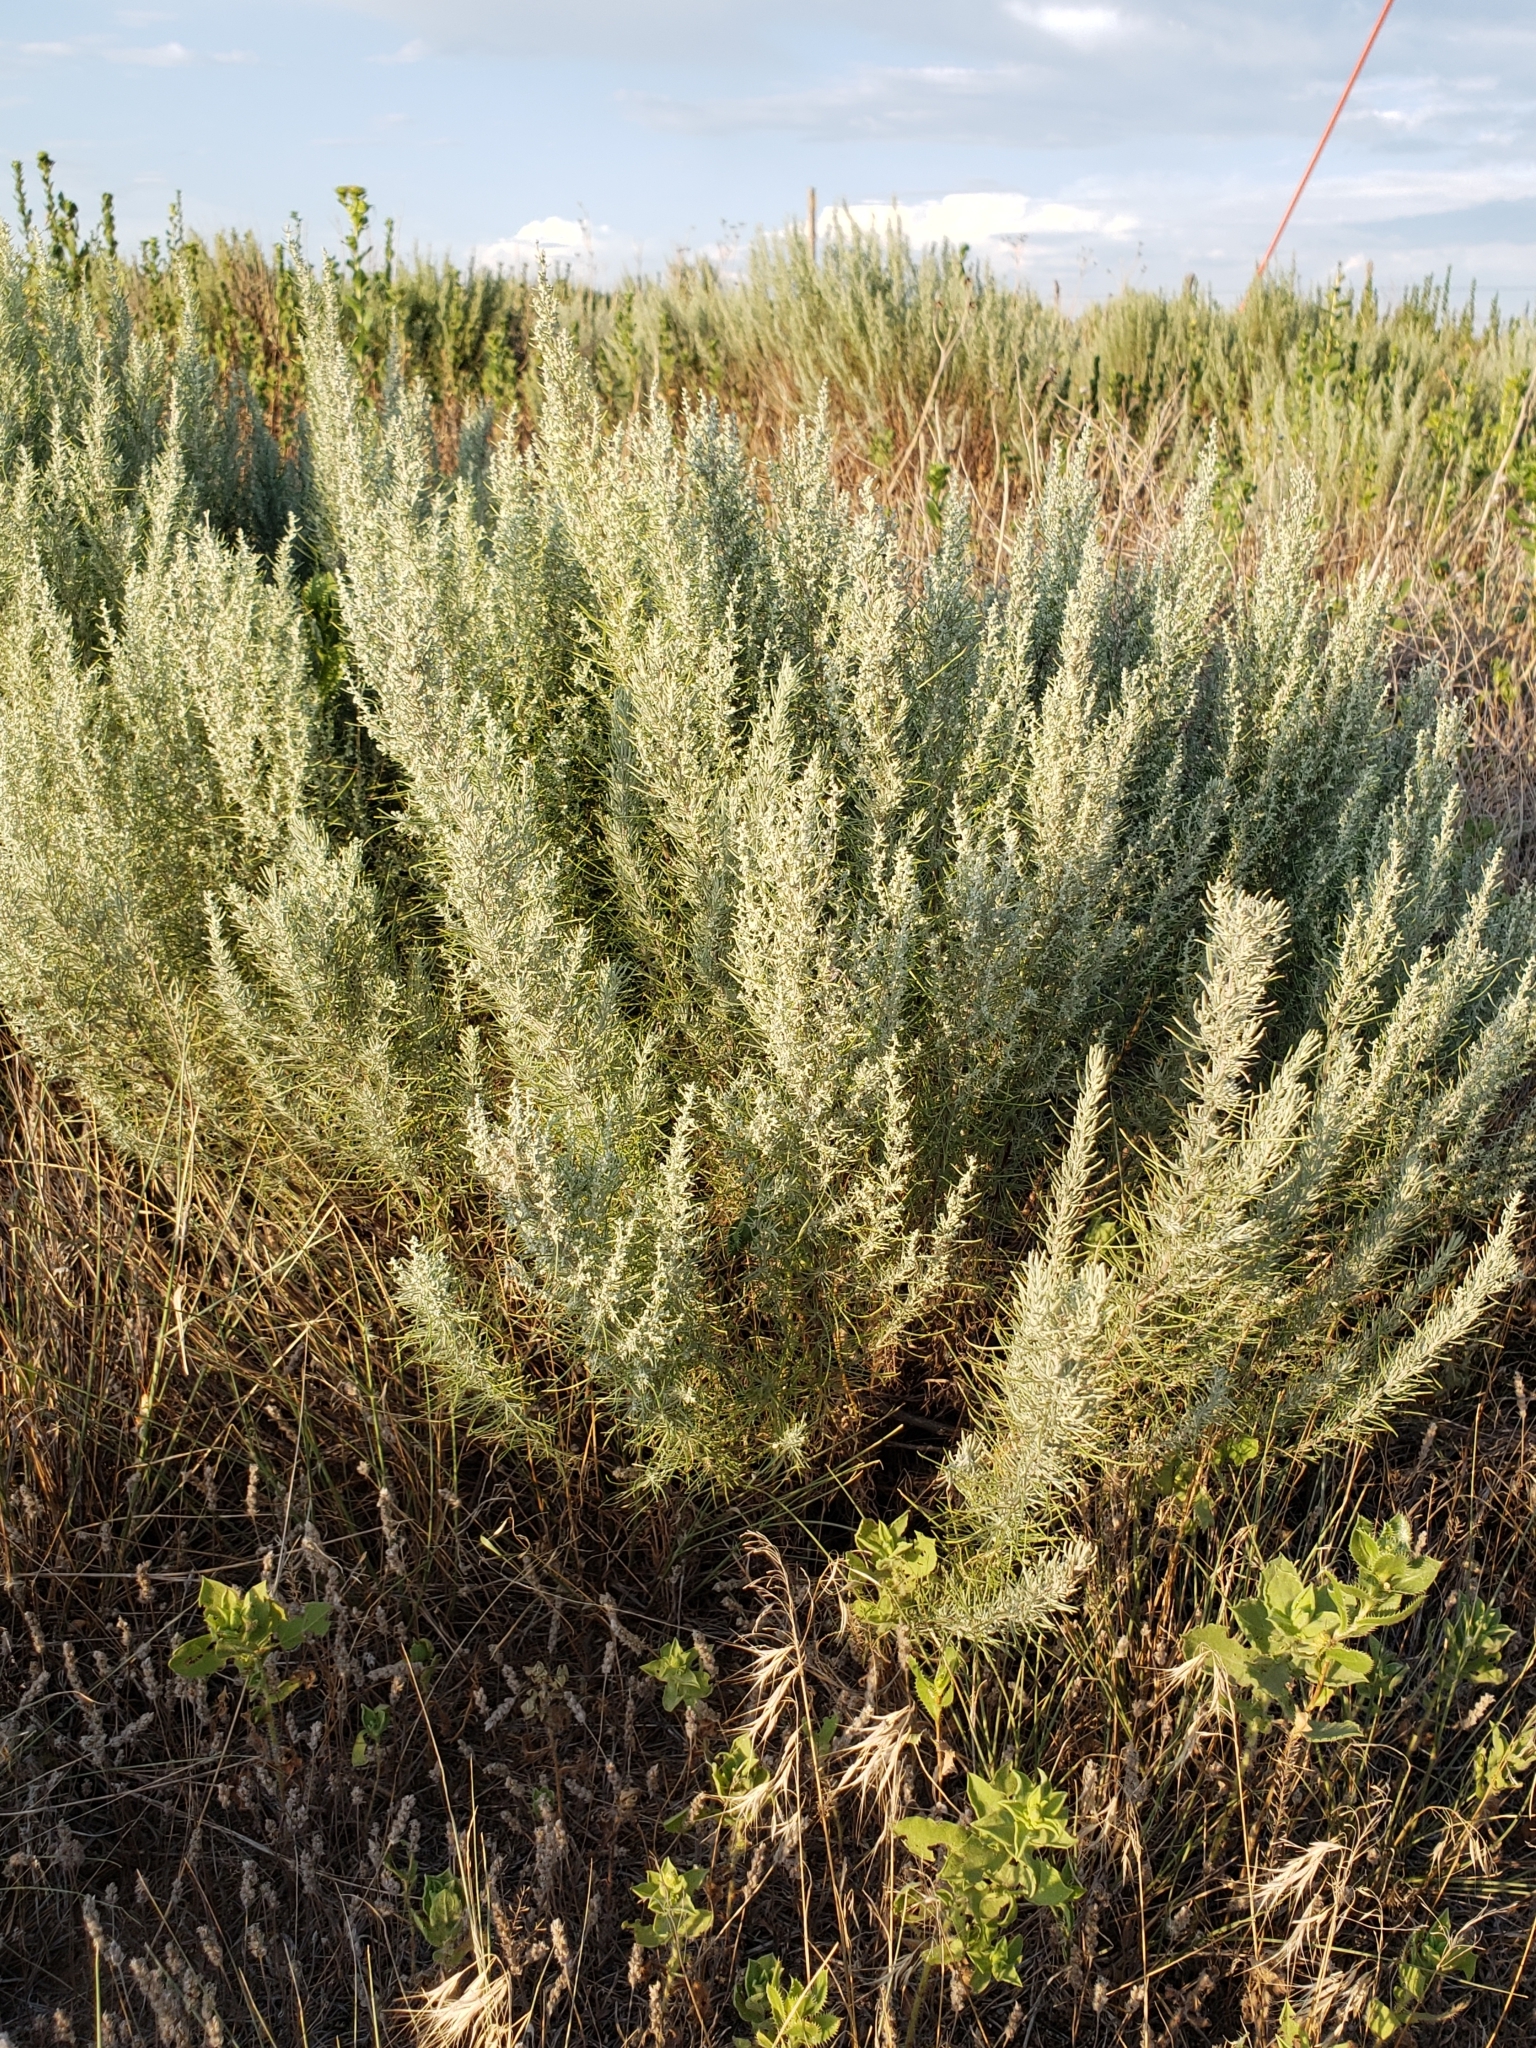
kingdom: Plantae
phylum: Tracheophyta
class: Magnoliopsida
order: Asterales
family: Asteraceae
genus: Artemisia
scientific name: Artemisia filifolia
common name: Sand-sage
